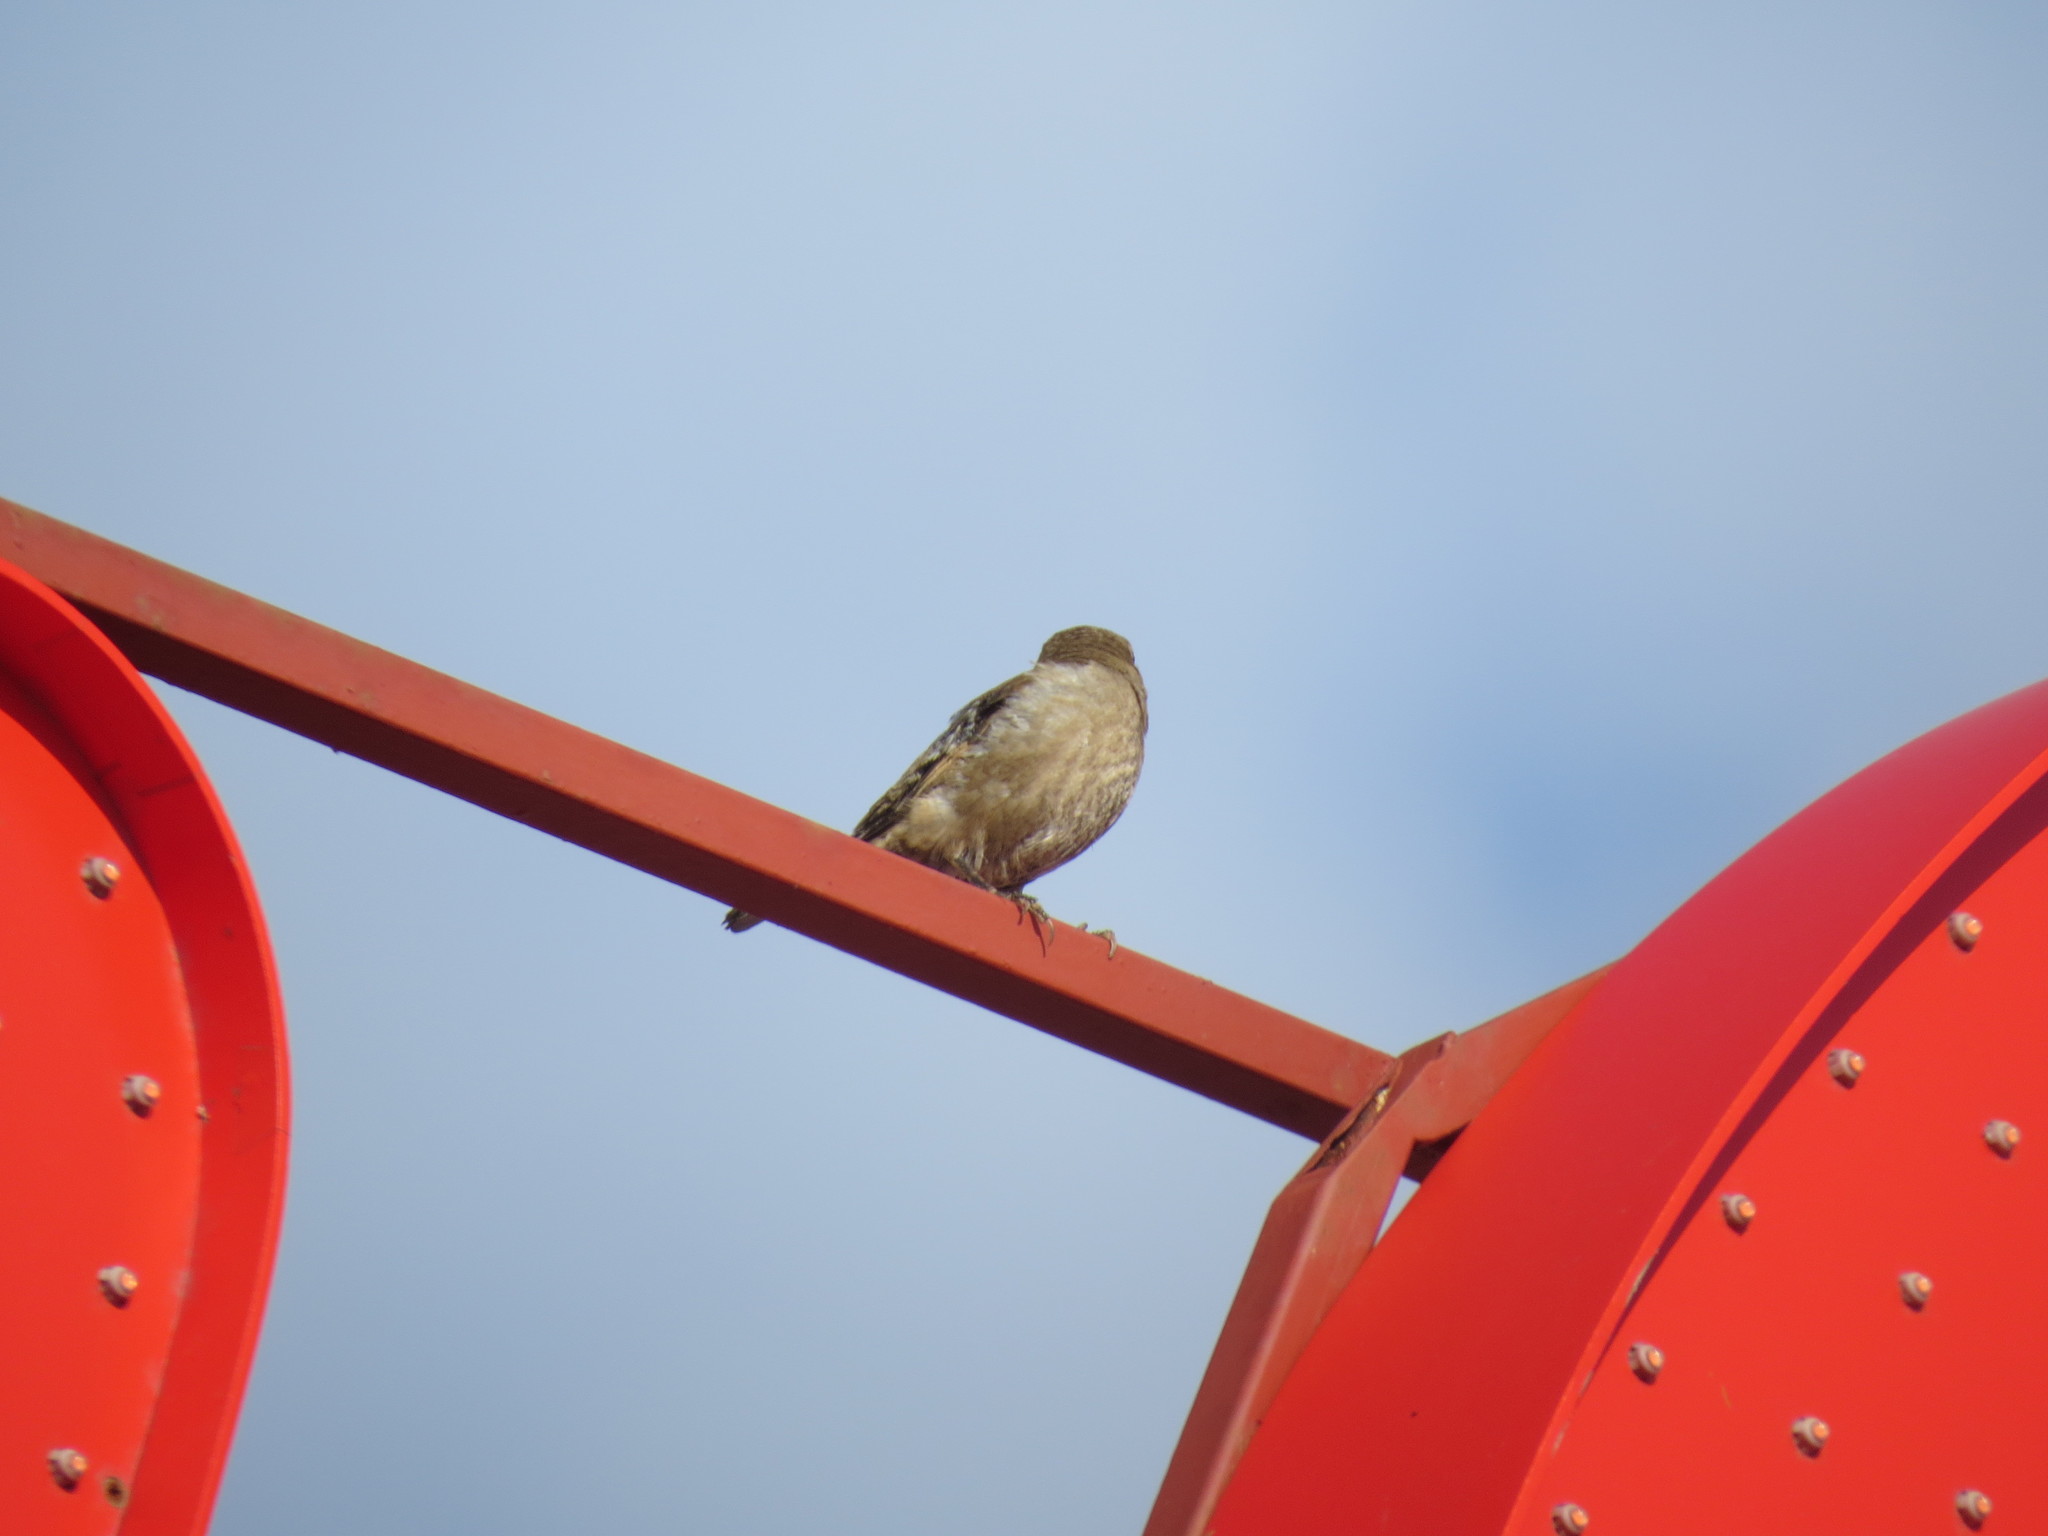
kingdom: Animalia
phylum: Chordata
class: Aves
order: Passeriformes
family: Fringillidae
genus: Coccothraustes
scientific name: Coccothraustes coccothraustes
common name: Hawfinch
